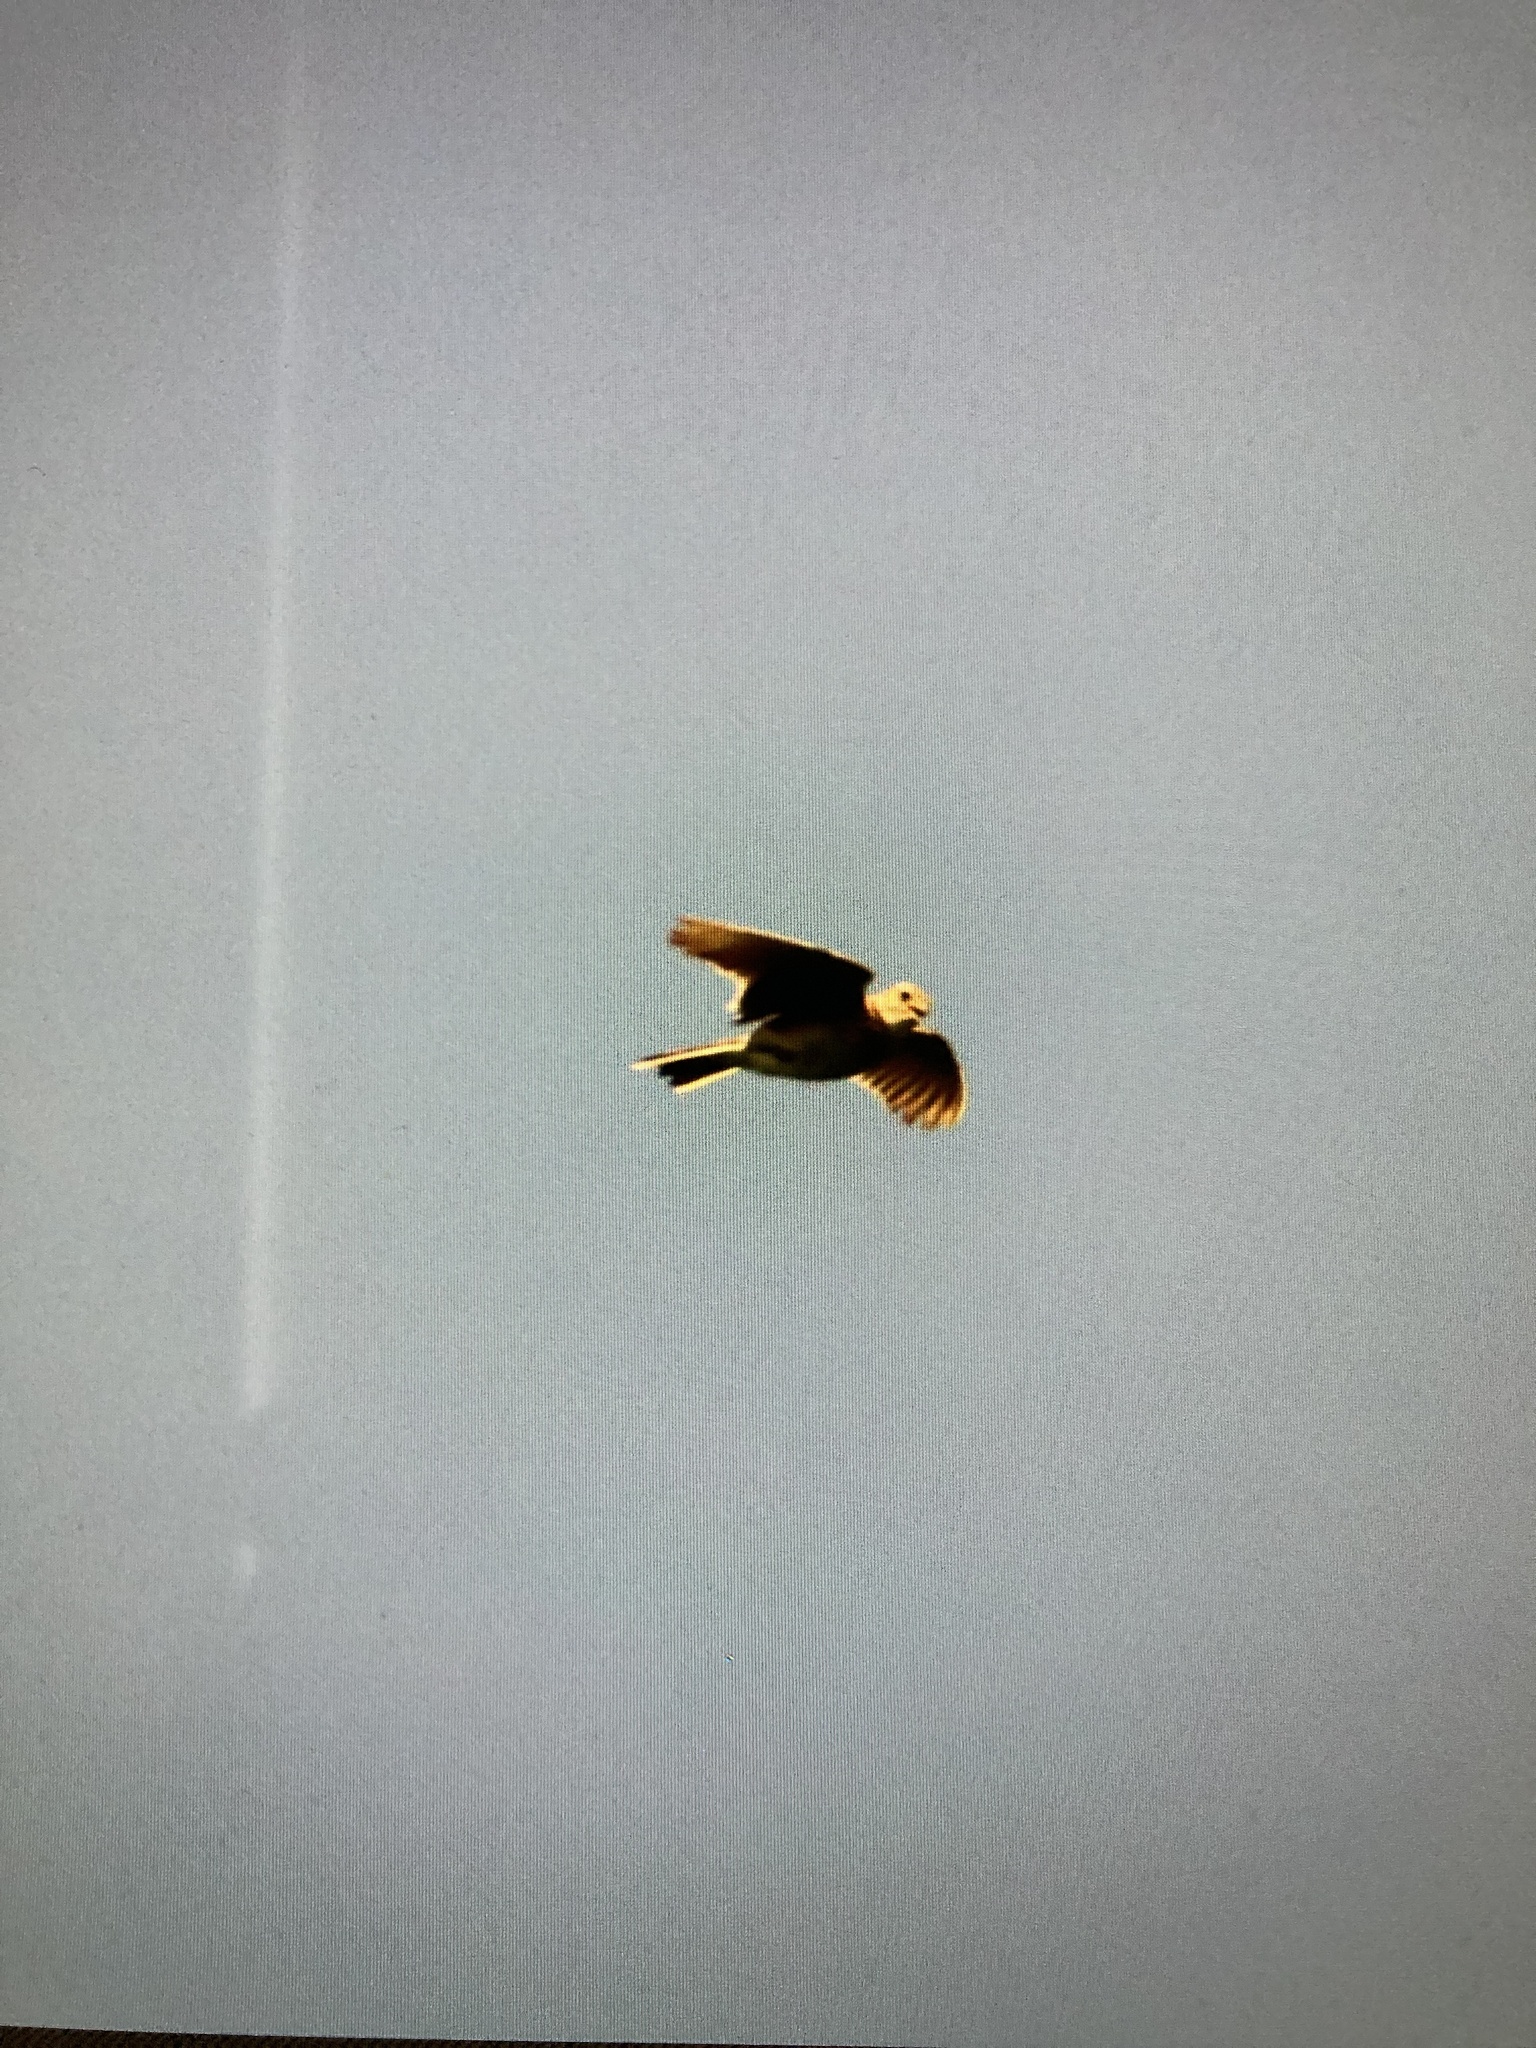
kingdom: Animalia
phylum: Chordata
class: Aves
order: Passeriformes
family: Alaudidae
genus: Alauda
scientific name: Alauda arvensis
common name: Eurasian skylark
